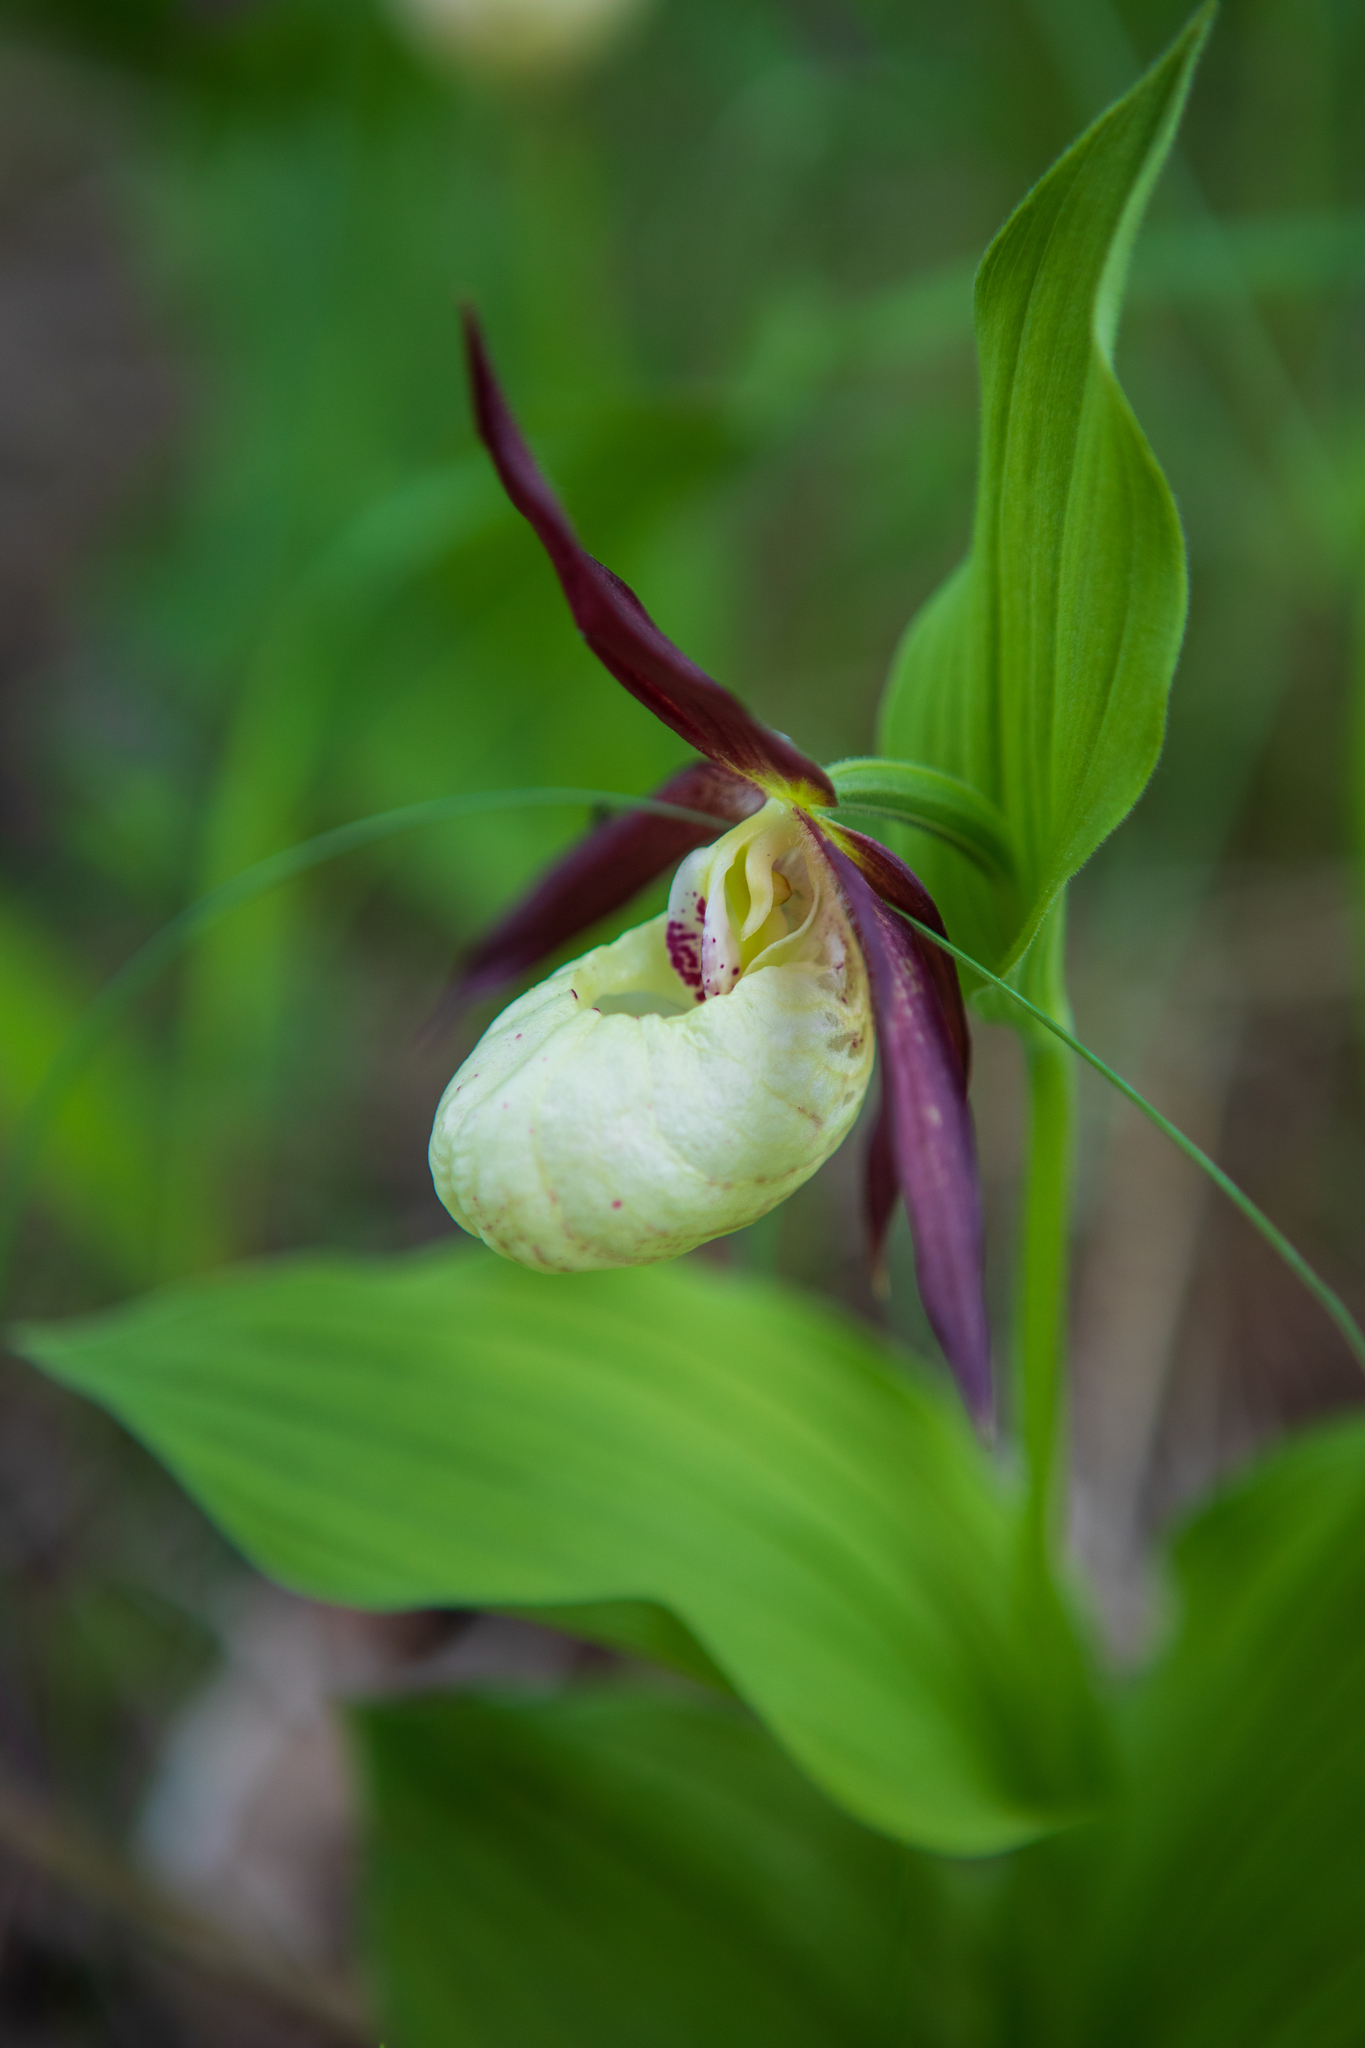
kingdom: Plantae
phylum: Tracheophyta
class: Liliopsida
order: Asparagales
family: Orchidaceae
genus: Cypripedium
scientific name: Cypripedium ventricosum
